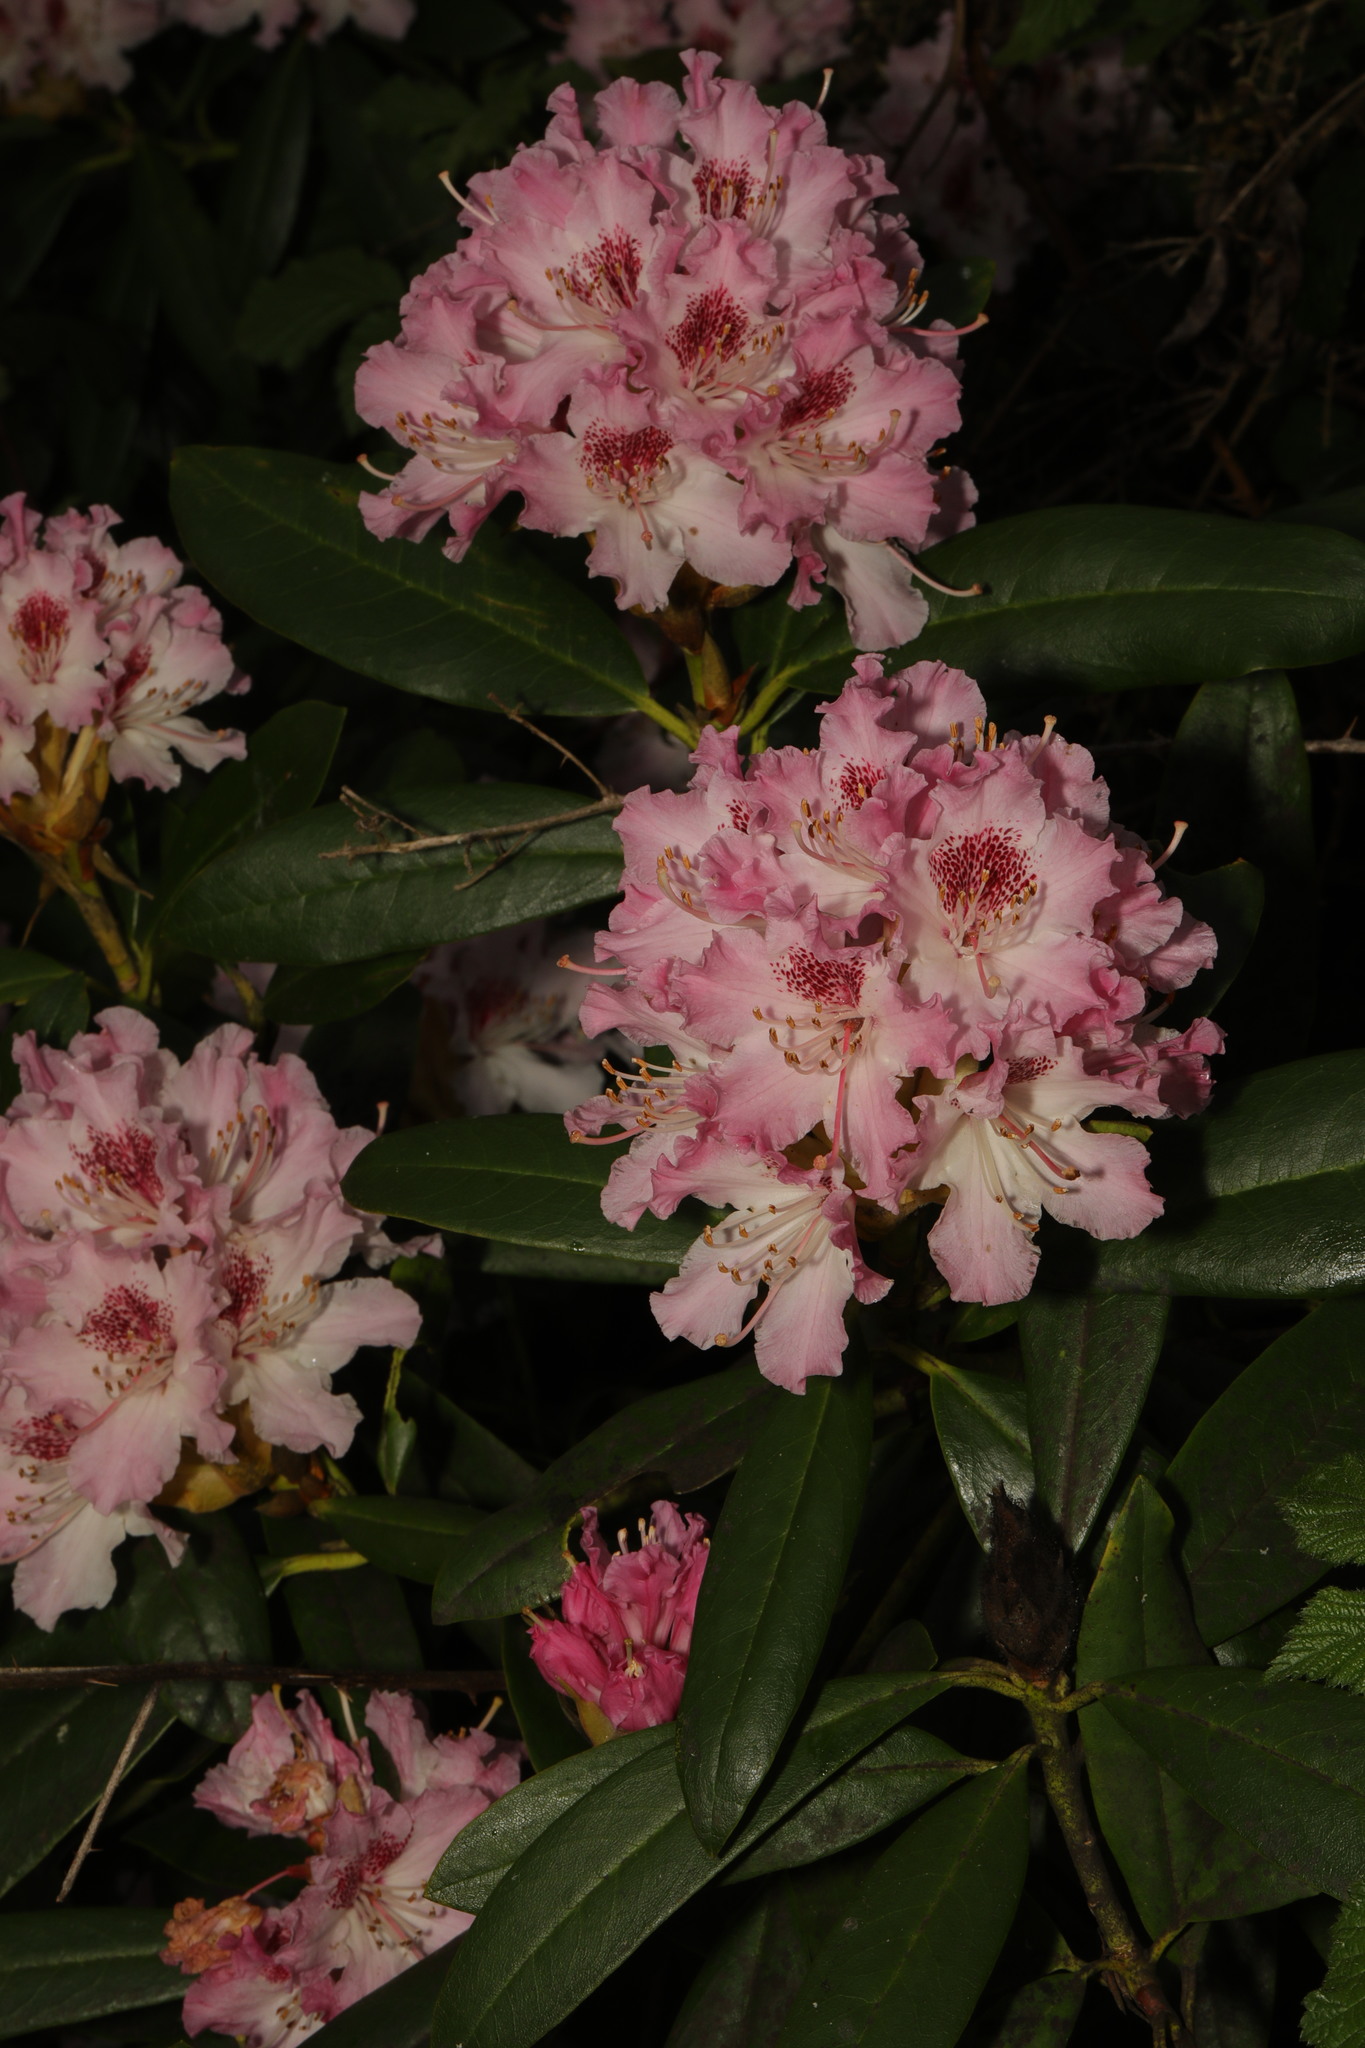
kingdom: Plantae
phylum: Tracheophyta
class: Magnoliopsida
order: Ericales
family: Ericaceae
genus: Rhododendron
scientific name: Rhododendron
